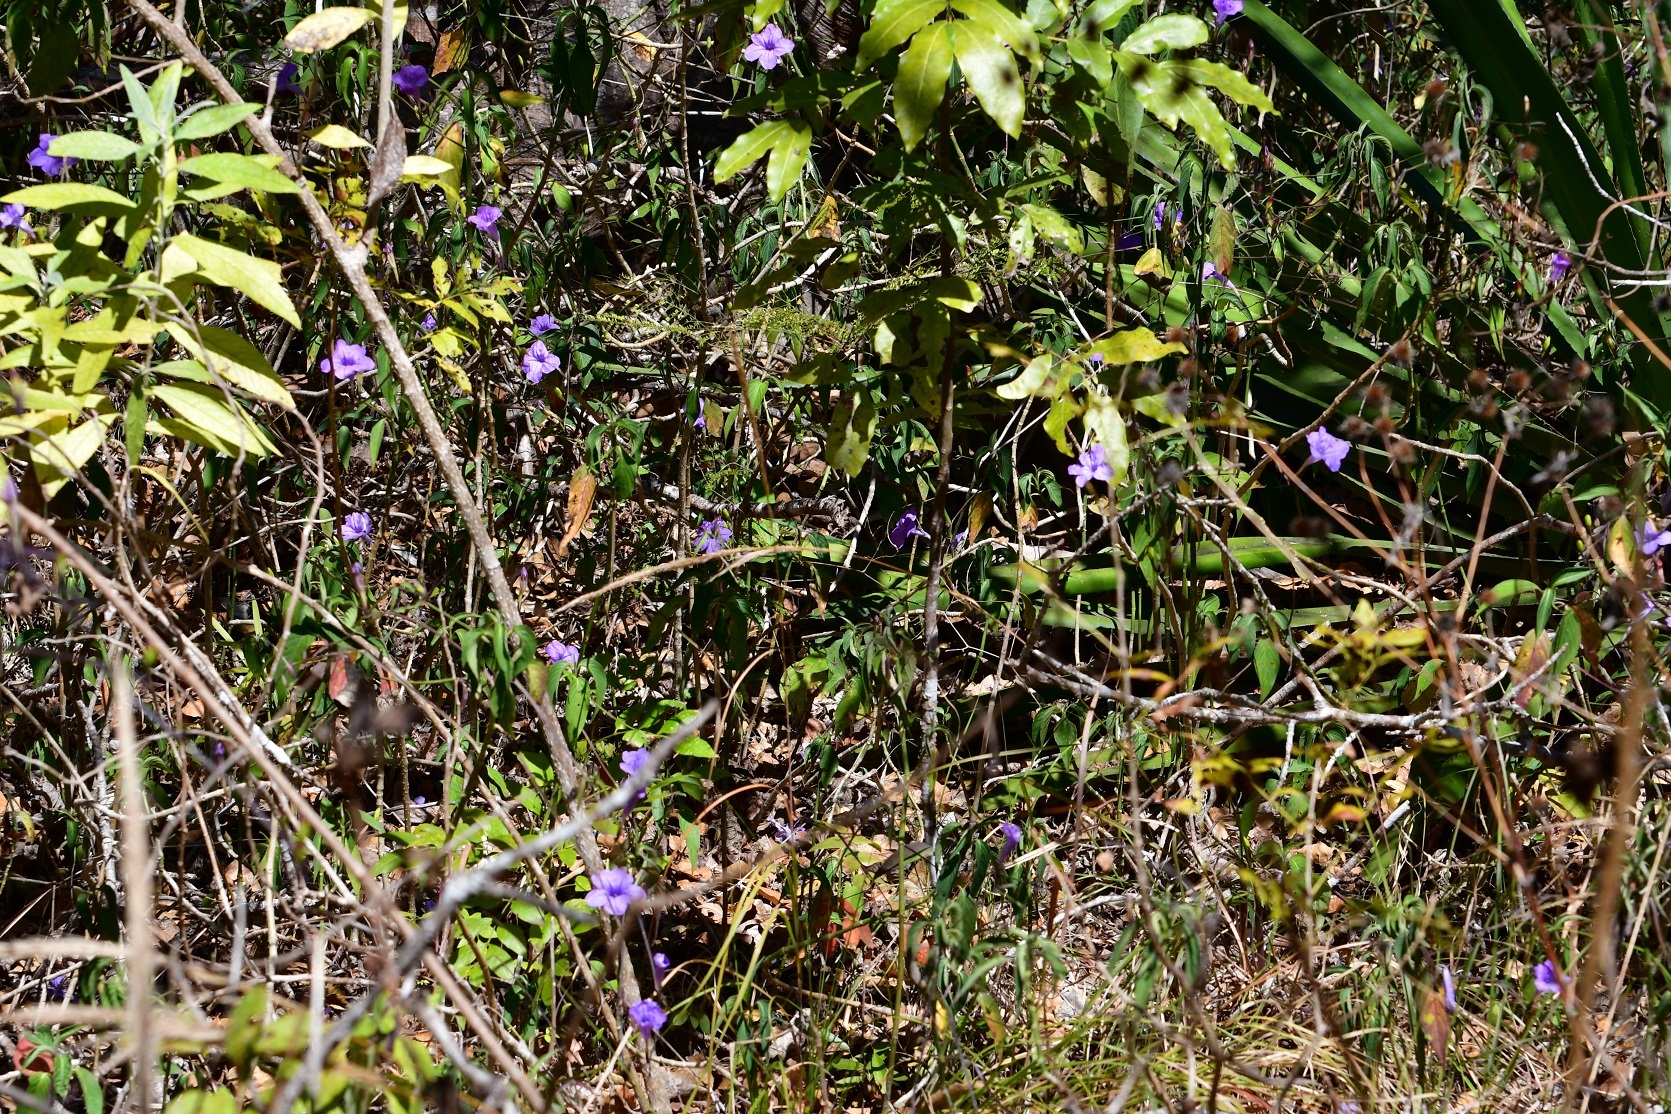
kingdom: Plantae
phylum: Tracheophyta
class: Magnoliopsida
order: Lamiales
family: Acanthaceae
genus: Ruellia
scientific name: Ruellia breedlovei
